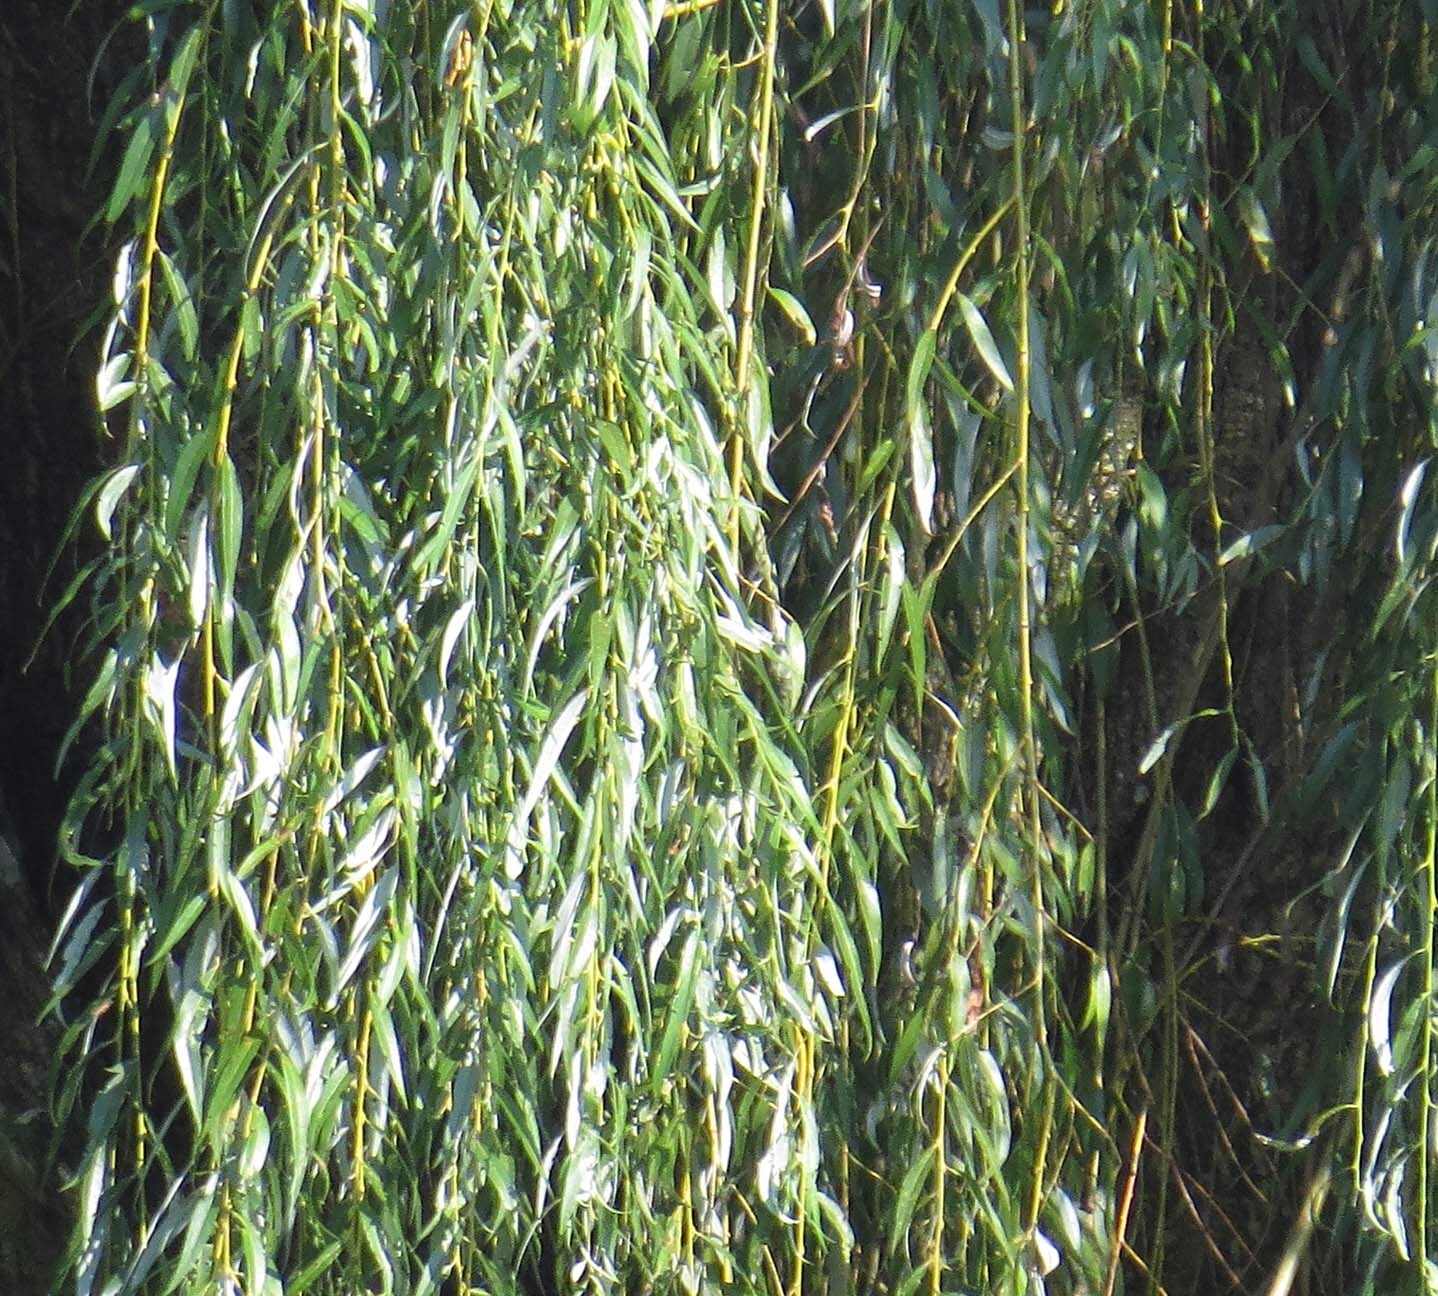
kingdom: Plantae
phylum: Tracheophyta
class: Magnoliopsida
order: Malpighiales
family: Salicaceae
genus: Salix
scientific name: Salix babylonica
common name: Weeping willow
